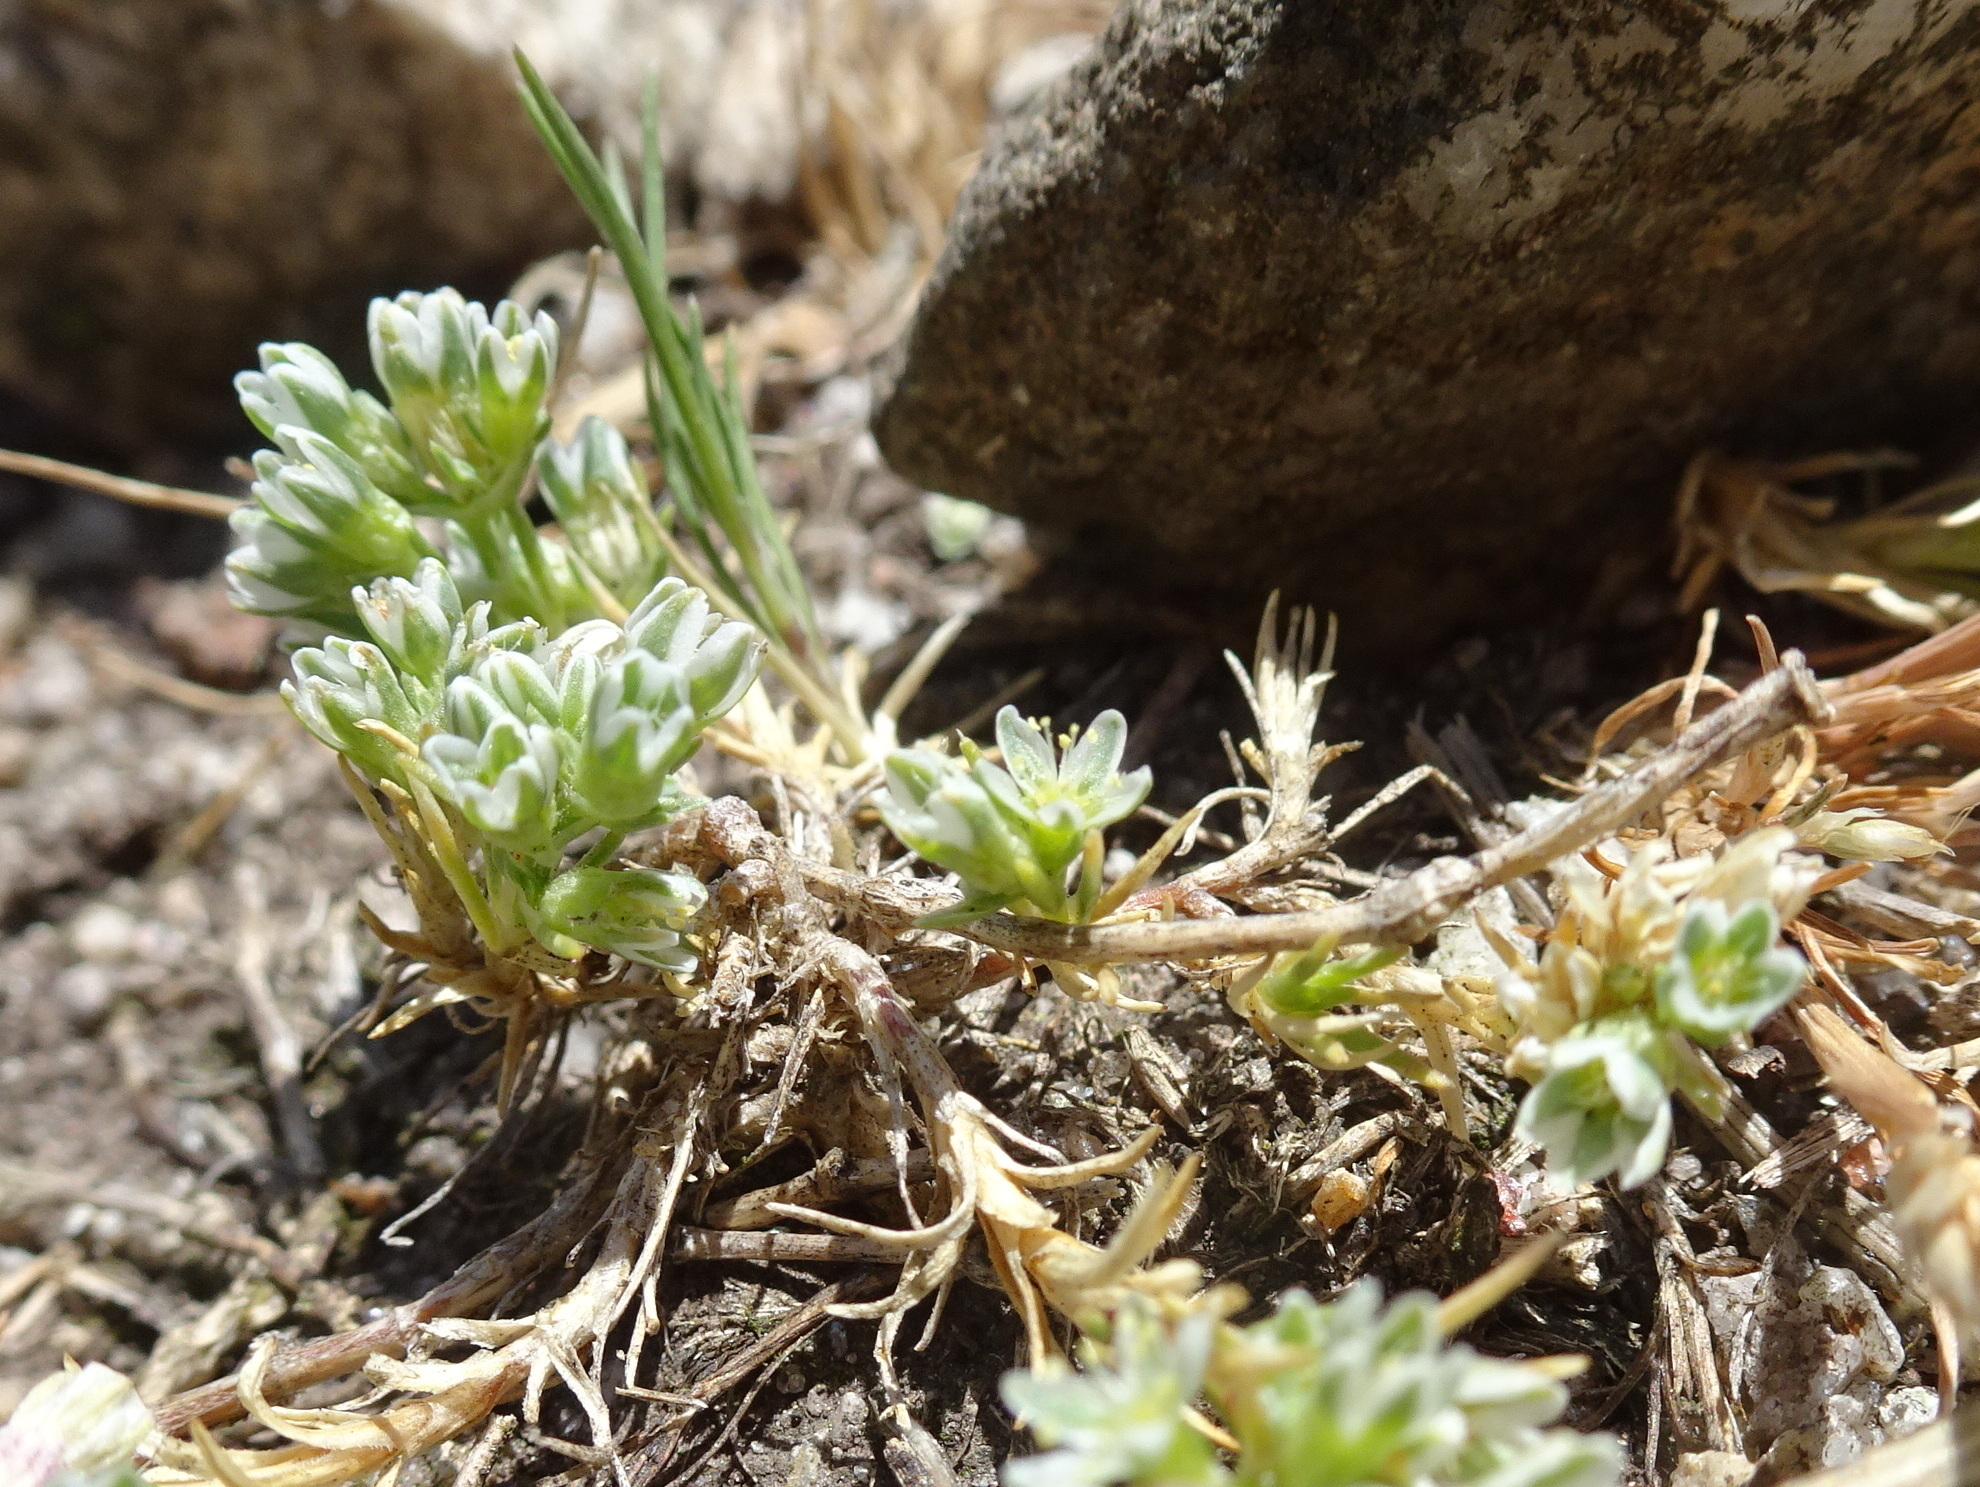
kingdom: Plantae
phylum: Tracheophyta
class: Magnoliopsida
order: Caryophyllales
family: Caryophyllaceae
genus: Scleranthus
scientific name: Scleranthus perennis
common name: Perennial knawel
